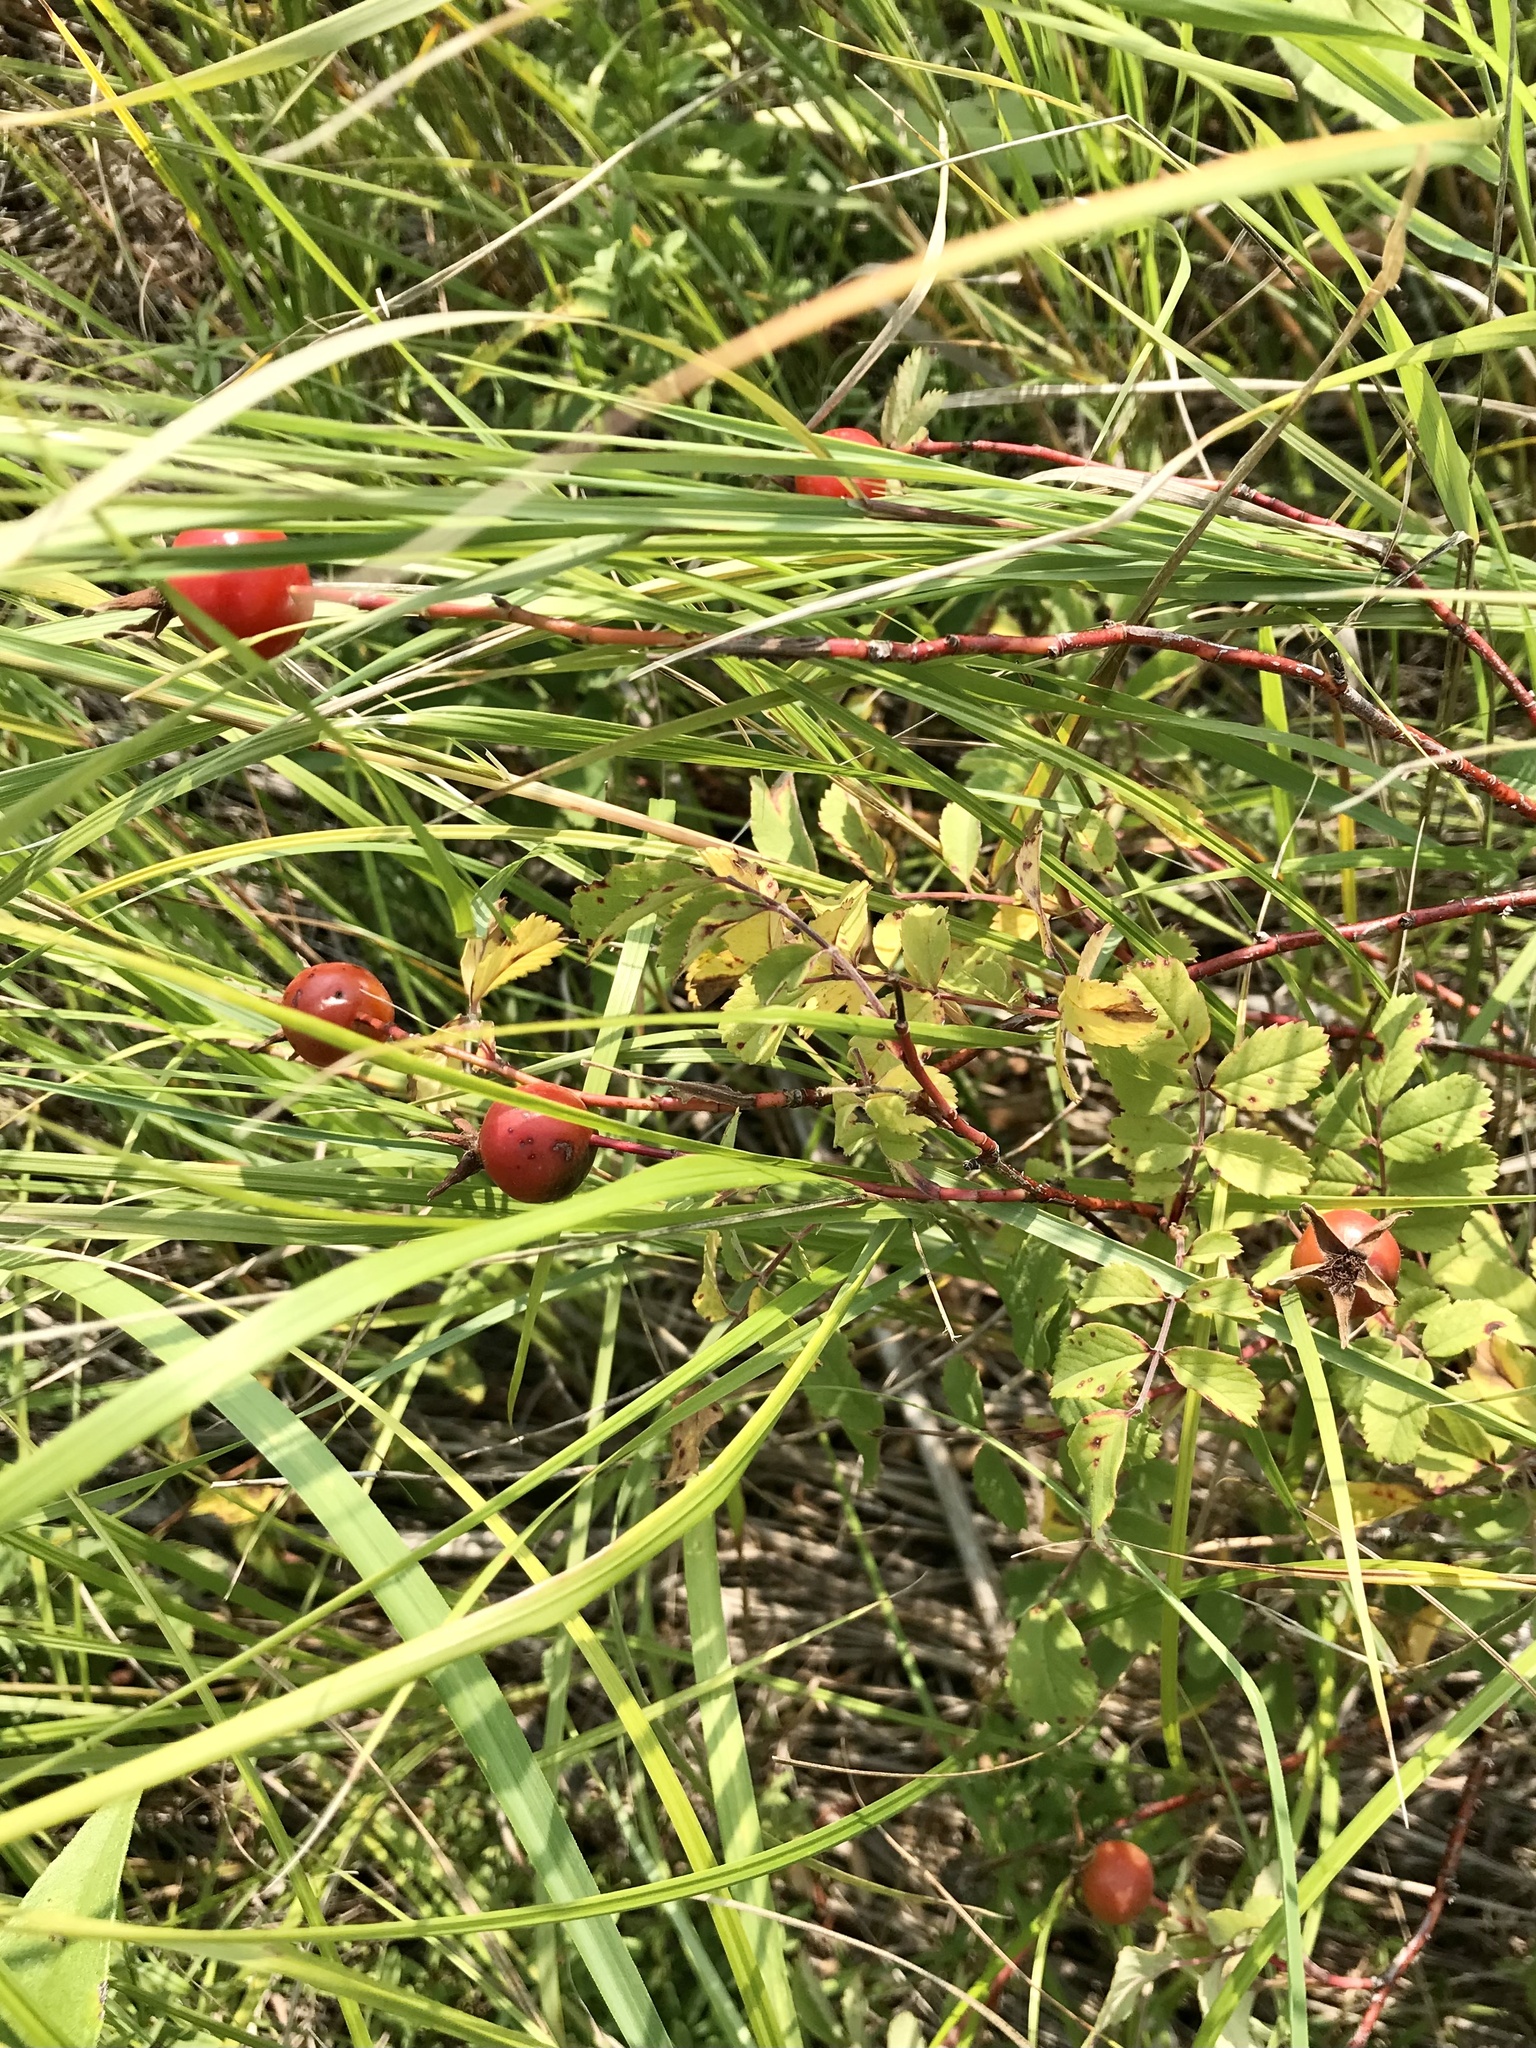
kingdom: Plantae
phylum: Tracheophyta
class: Magnoliopsida
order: Rosales
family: Rosaceae
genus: Rosa
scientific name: Rosa arkansana
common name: Prairie rose
